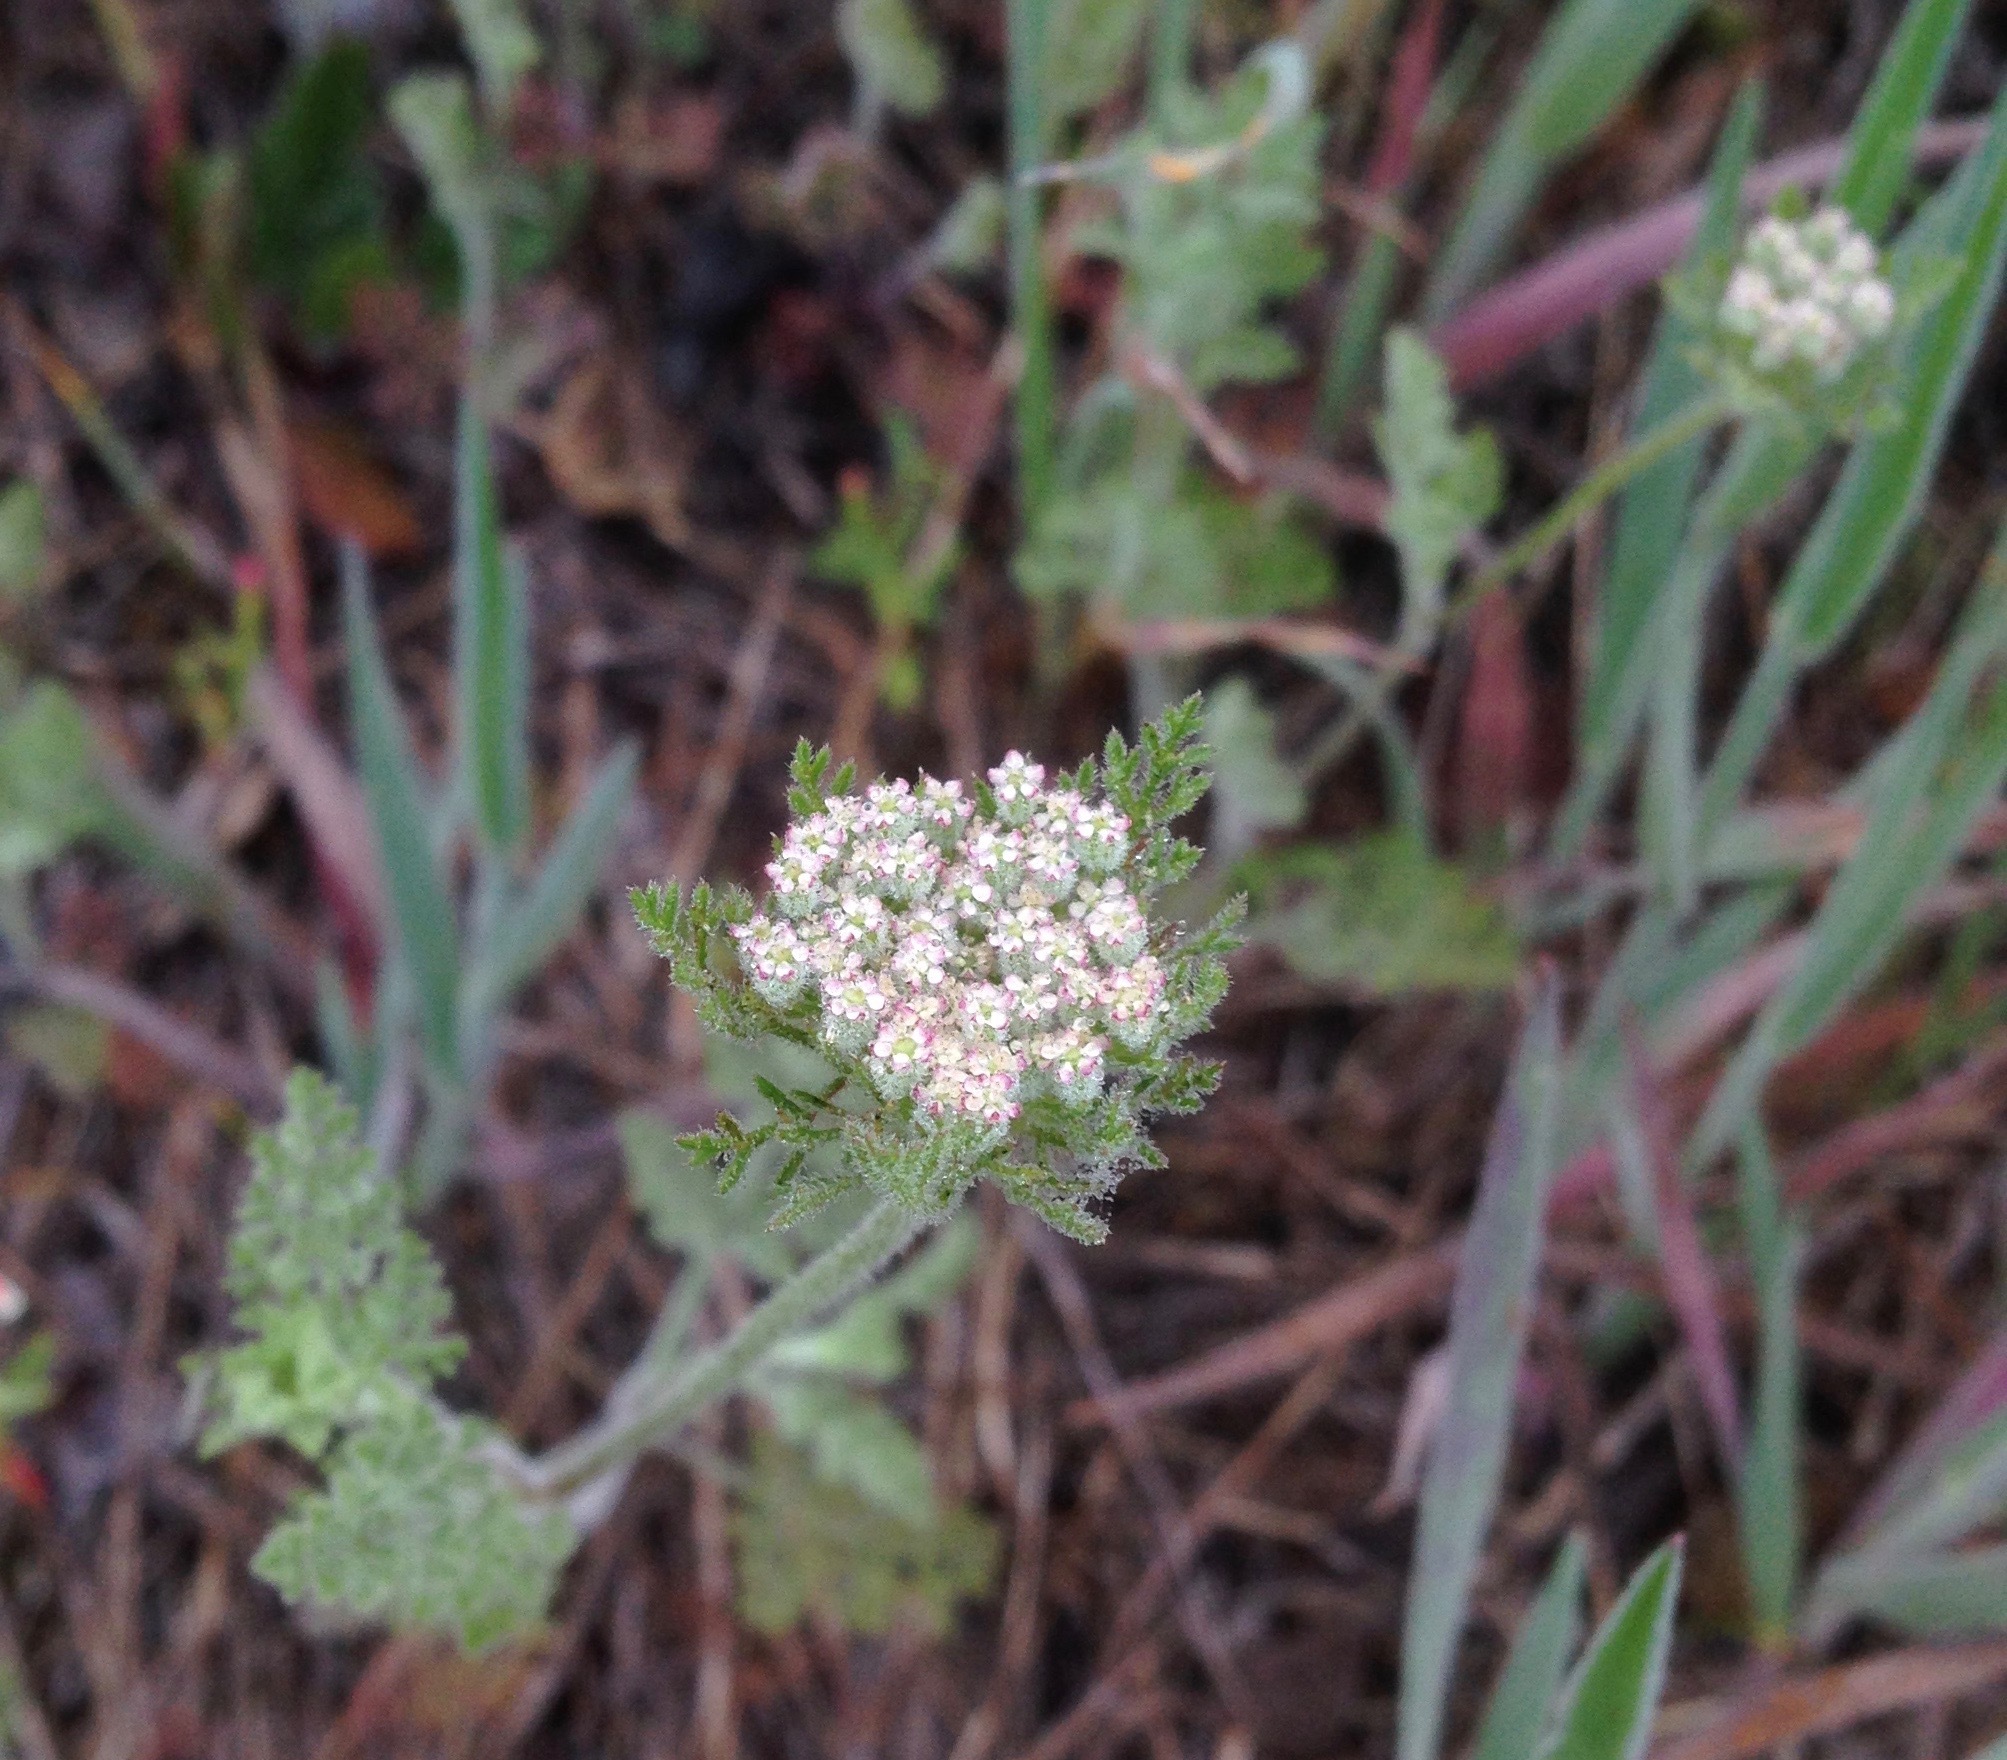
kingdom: Plantae
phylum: Tracheophyta
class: Magnoliopsida
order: Apiales
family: Apiaceae
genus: Daucus
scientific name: Daucus pusillus
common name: Southwest wild carrot
